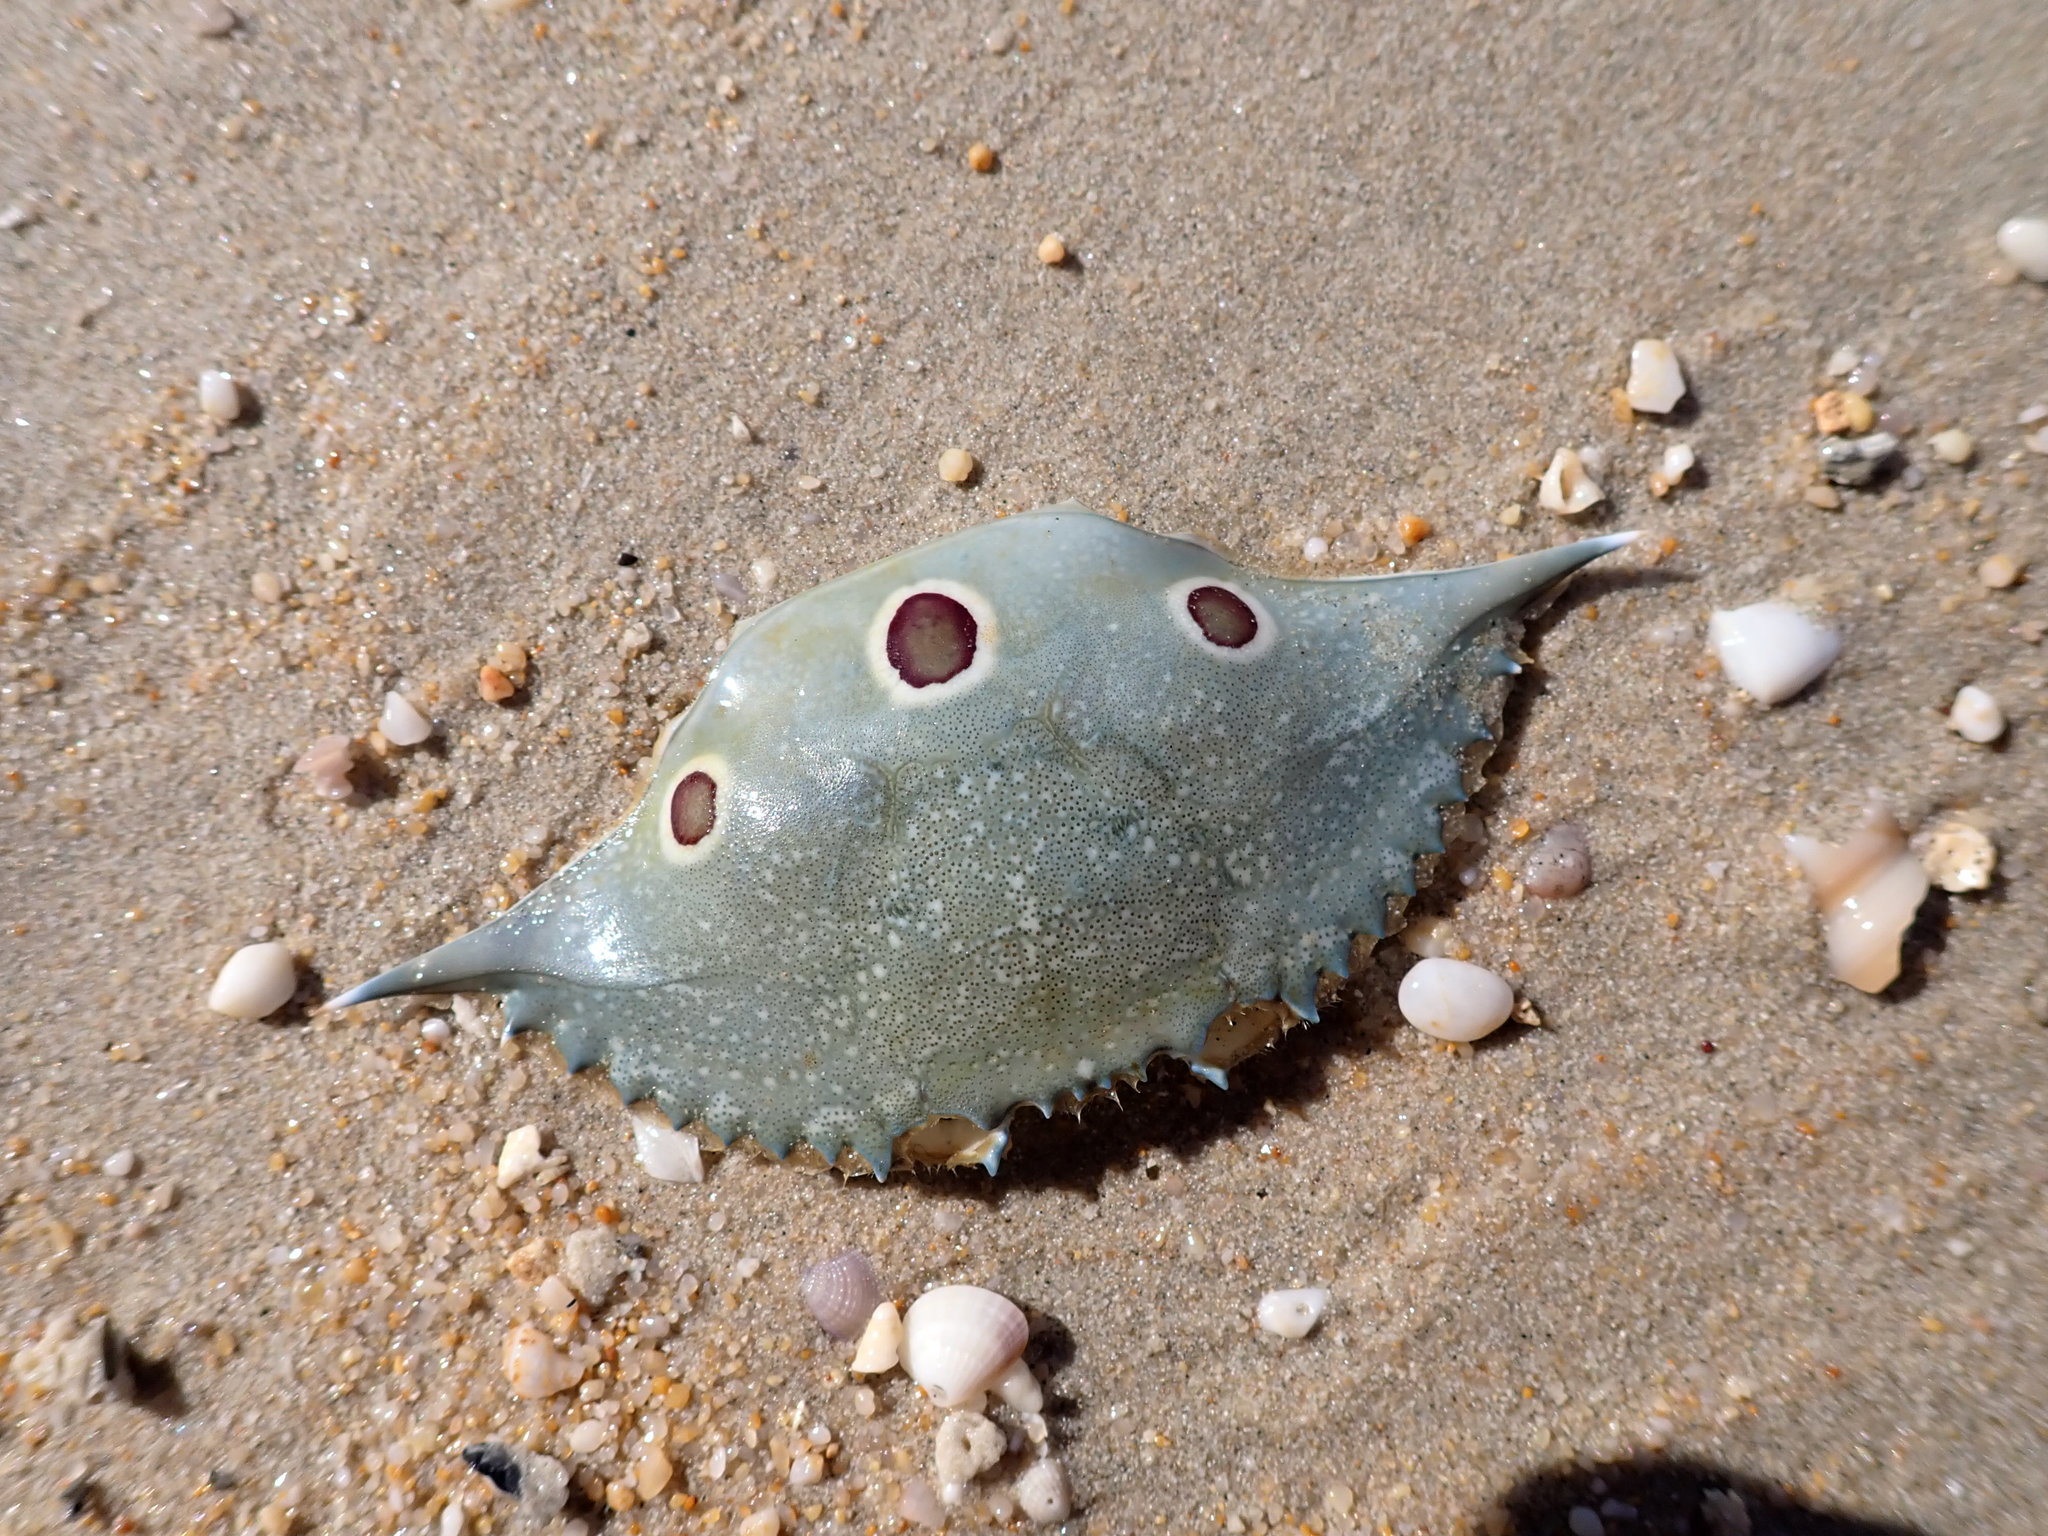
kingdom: Animalia
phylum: Arthropoda
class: Malacostraca
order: Decapoda
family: Portunidae
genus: Portunus
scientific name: Portunus sanguinolentus
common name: Blood-spotted swimming crab
